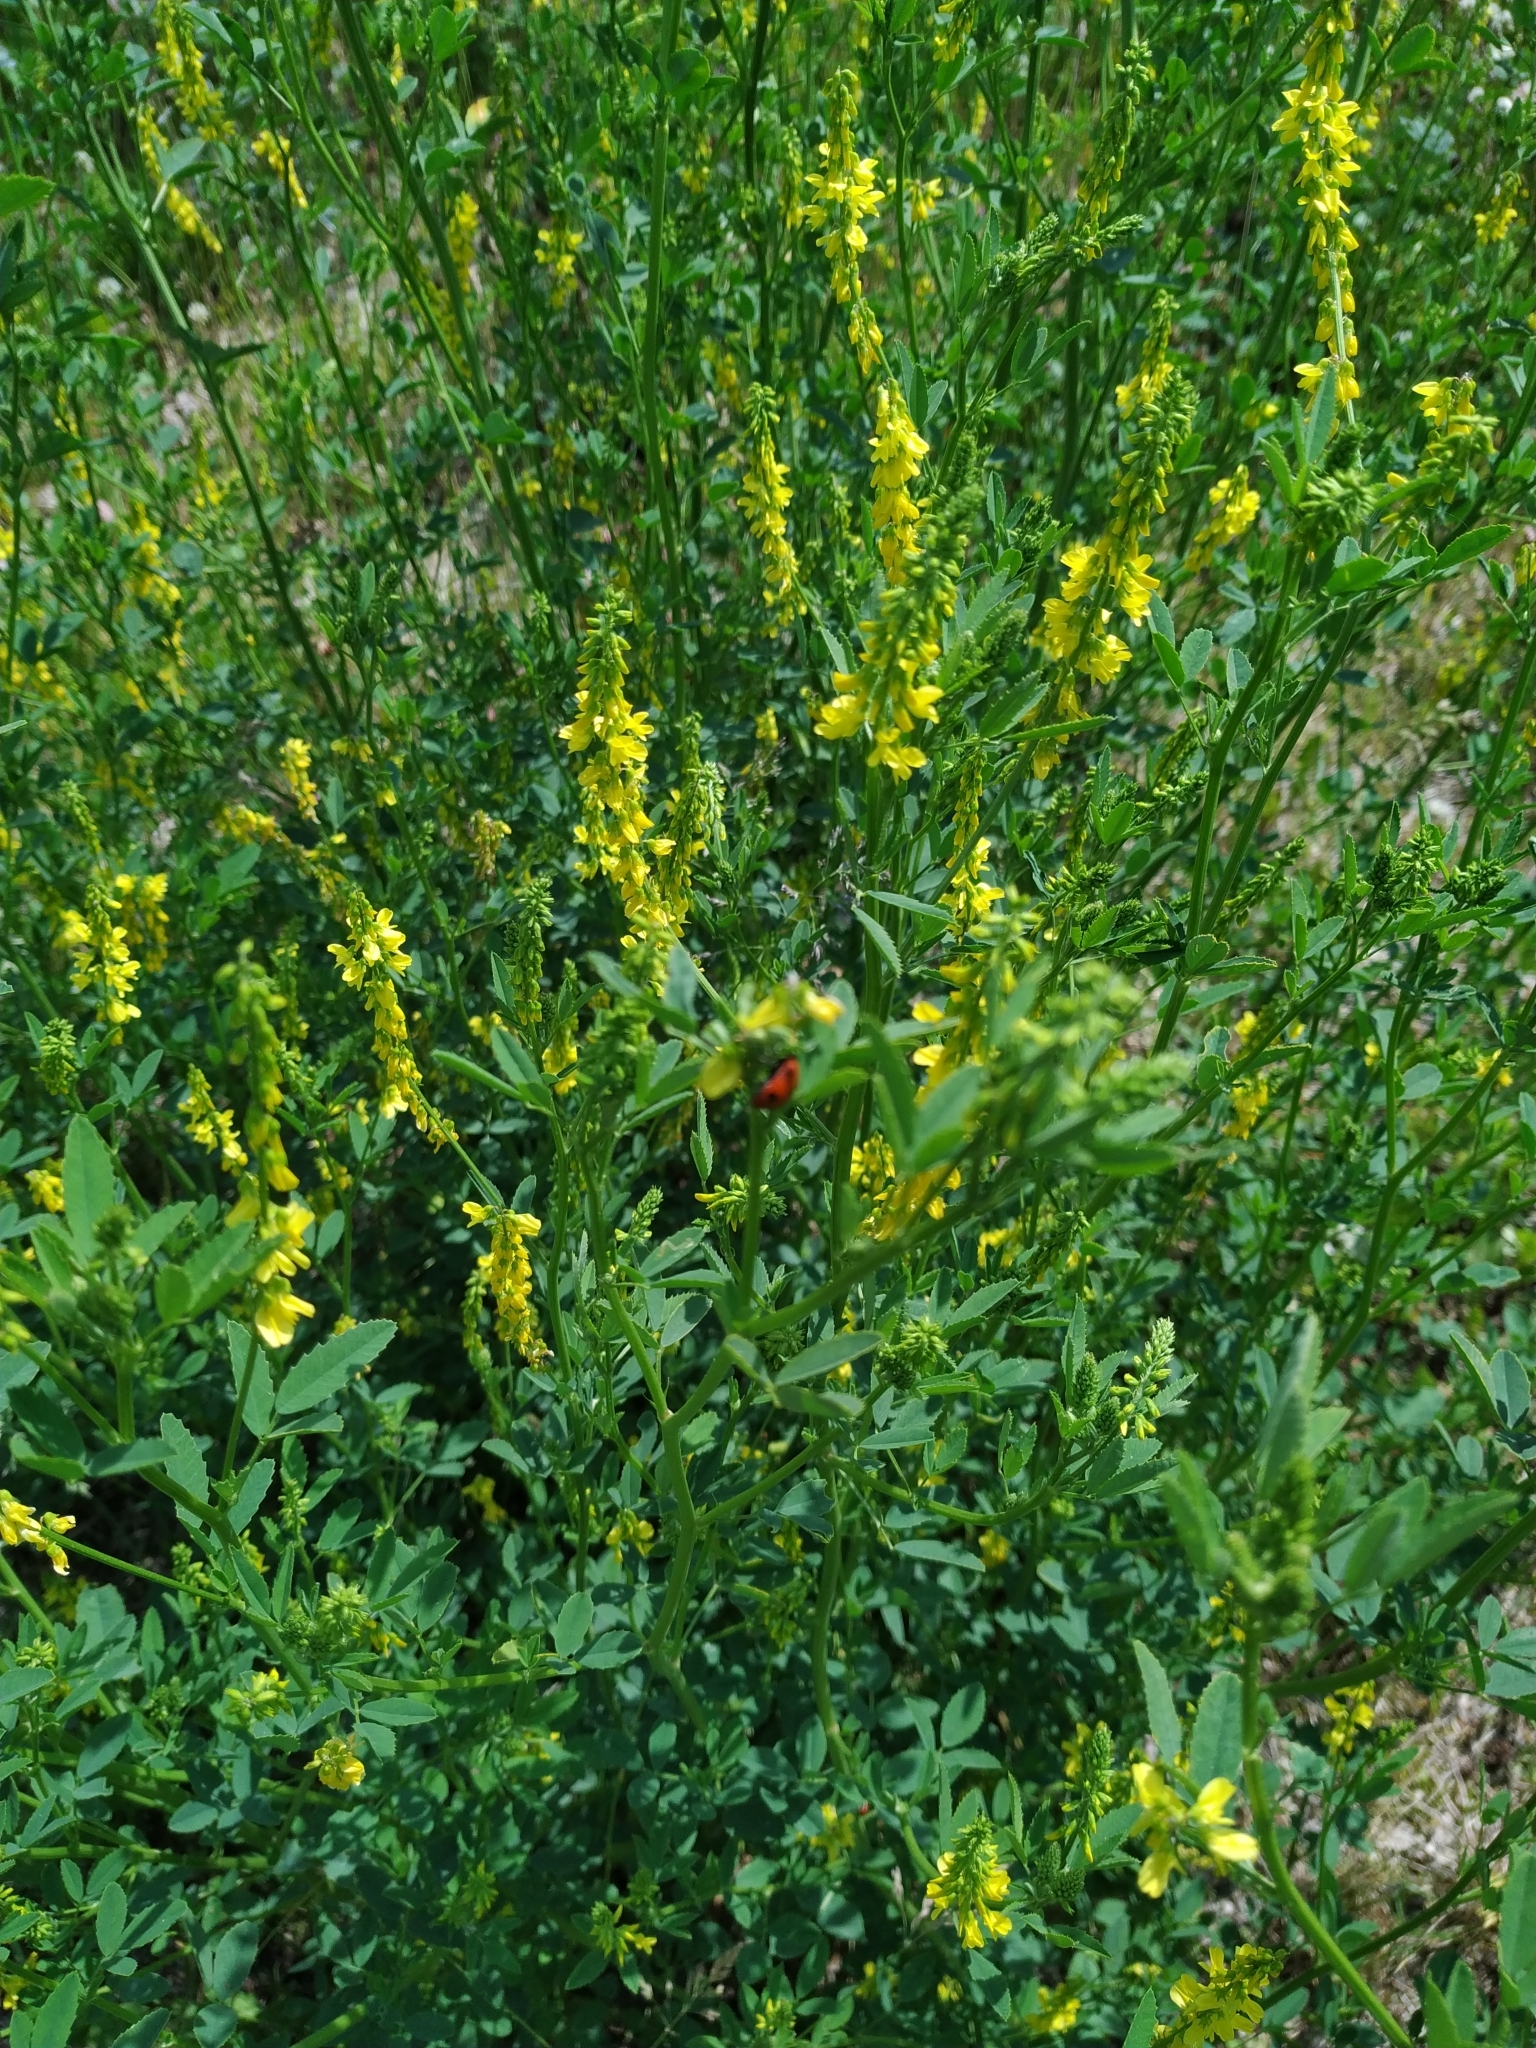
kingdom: Plantae
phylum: Tracheophyta
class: Magnoliopsida
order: Fabales
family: Fabaceae
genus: Melilotus
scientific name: Melilotus officinalis
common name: Sweetclover
